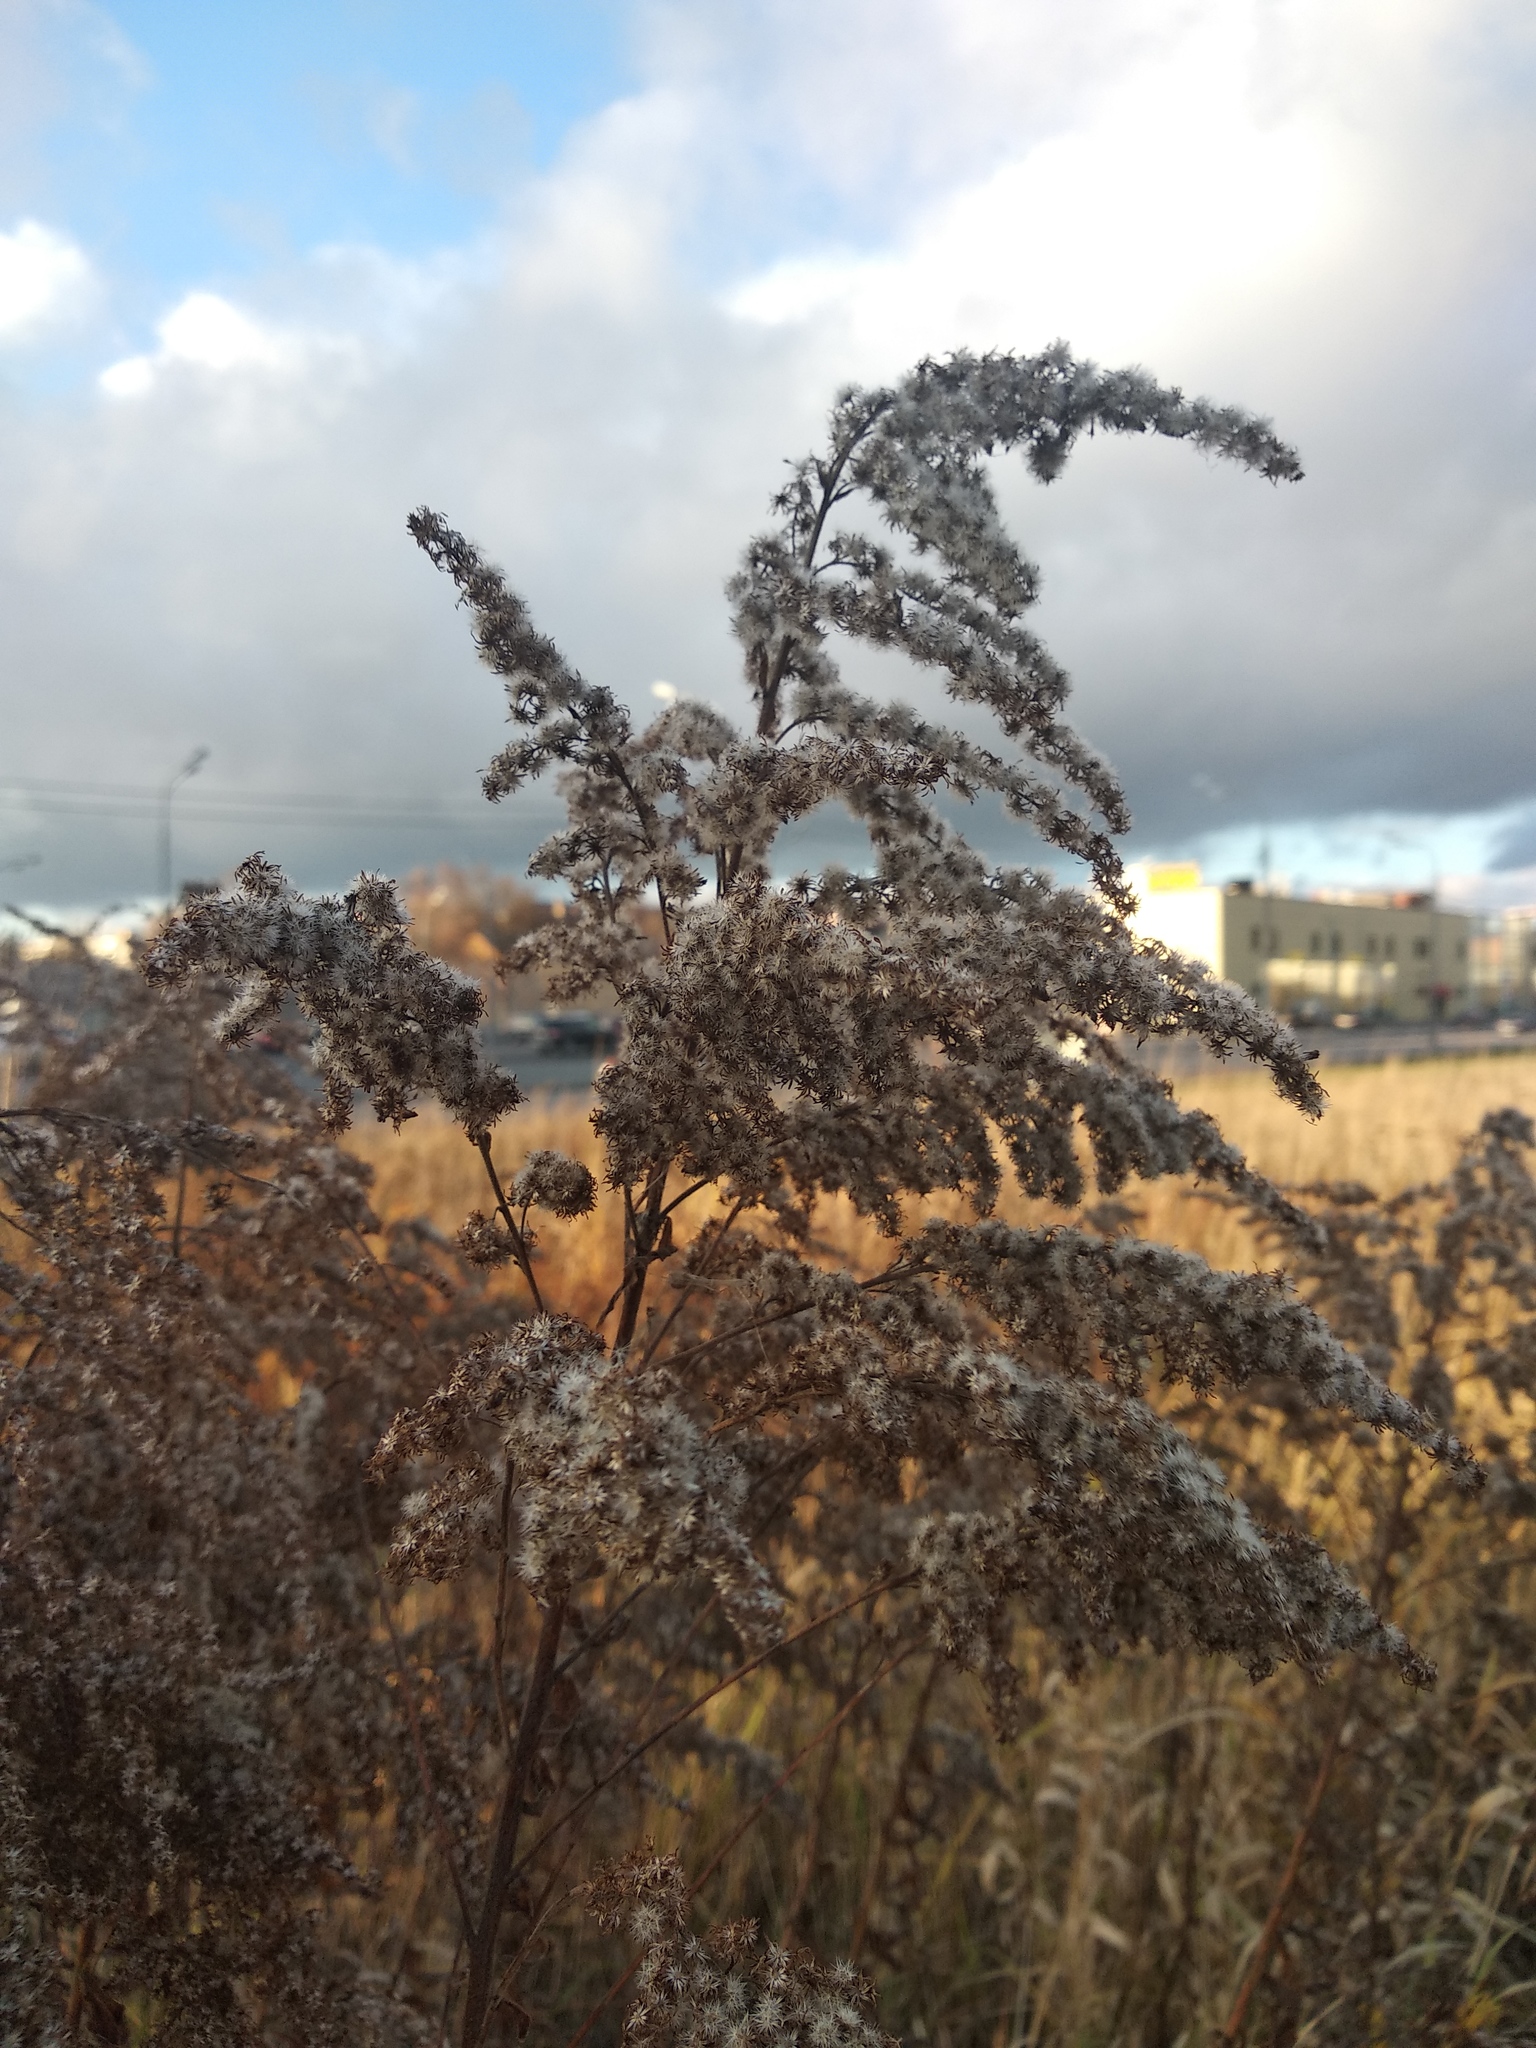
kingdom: Plantae
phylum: Tracheophyta
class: Magnoliopsida
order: Asterales
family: Asteraceae
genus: Solidago
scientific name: Solidago canadensis
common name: Canada goldenrod
